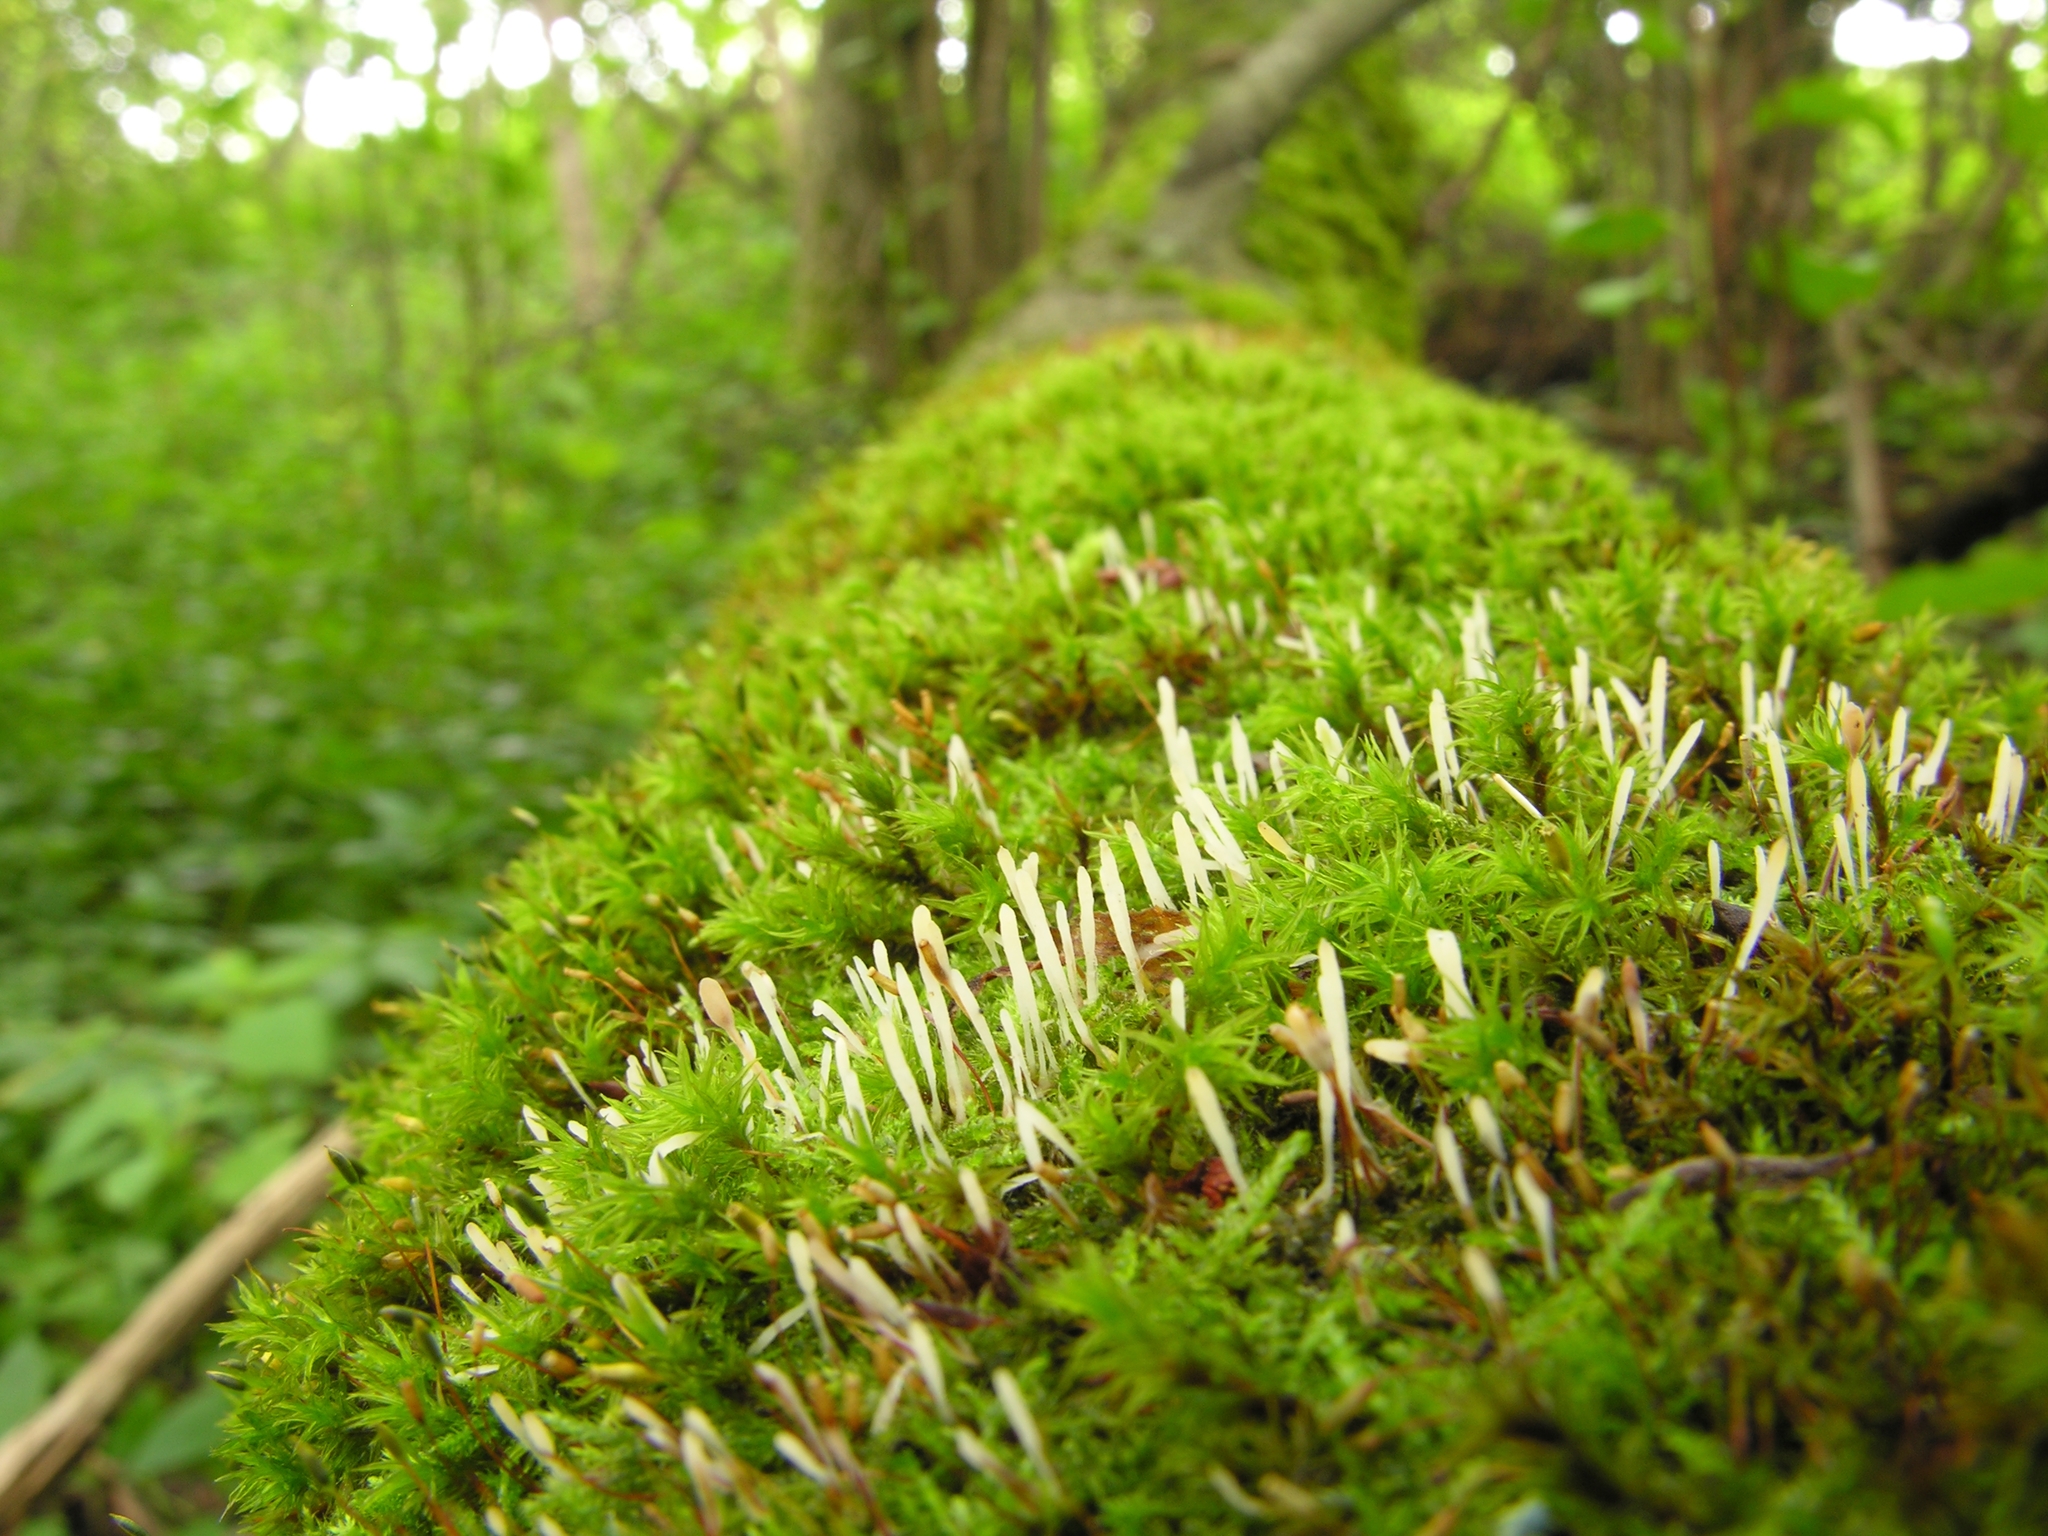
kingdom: Fungi
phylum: Basidiomycota
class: Pucciniomycetes
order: Platygloeales
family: Eocronartiaceae
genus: Eocronartium
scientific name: Eocronartium muscicola
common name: Moss rust
